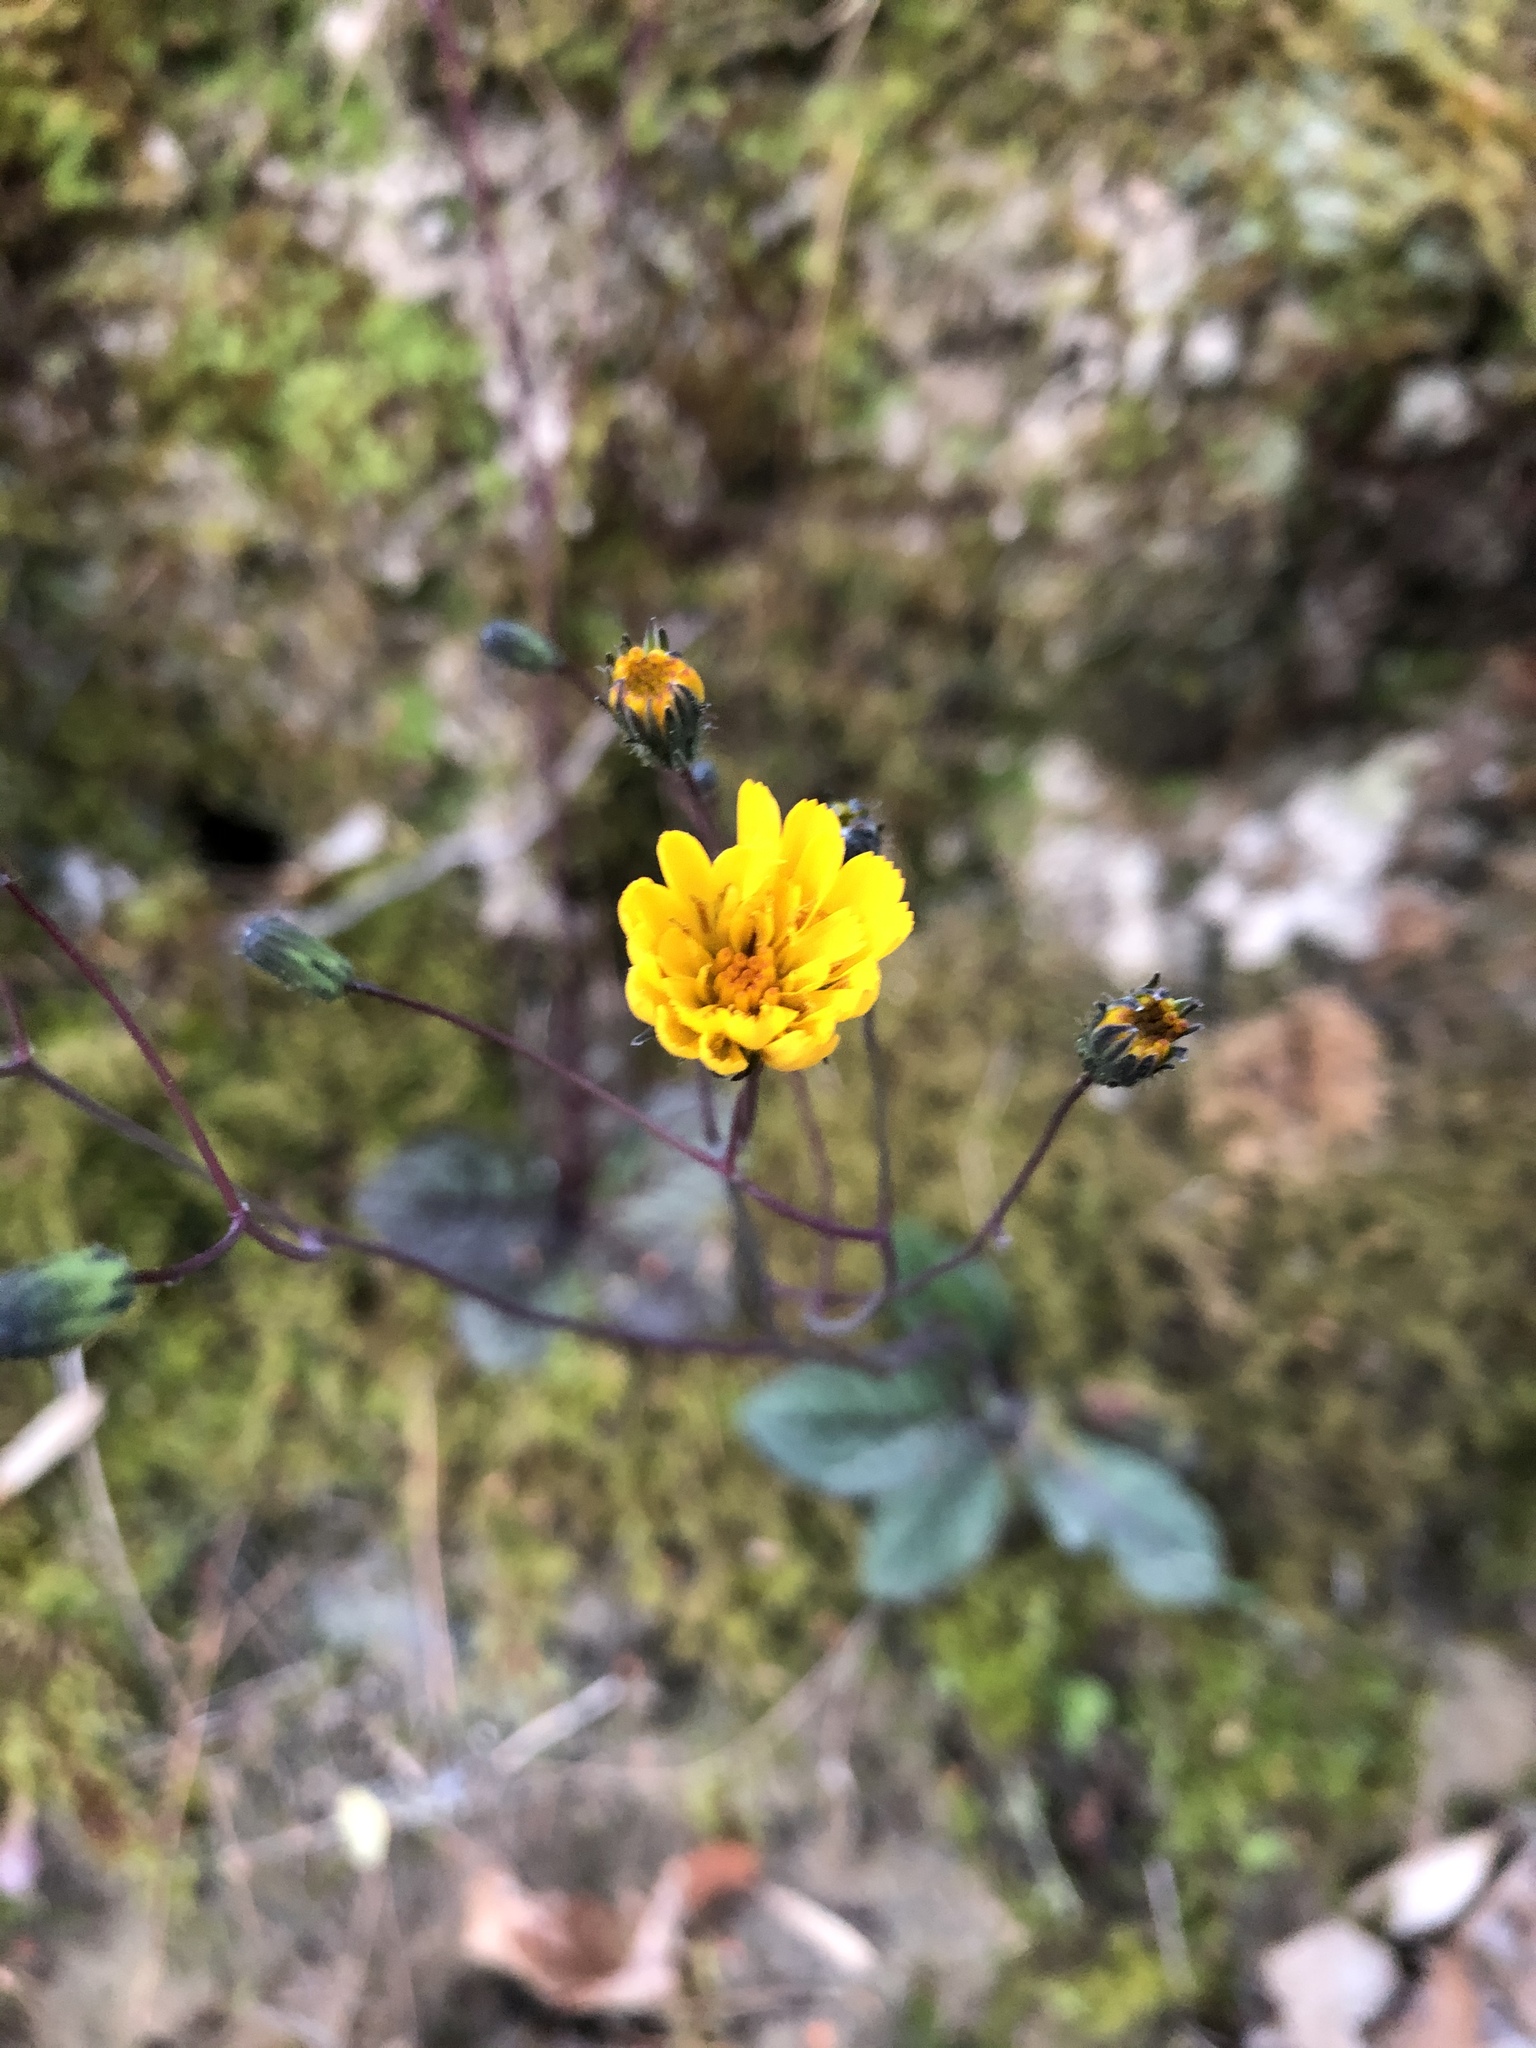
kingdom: Plantae
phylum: Tracheophyta
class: Magnoliopsida
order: Asterales
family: Asteraceae
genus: Hieracium
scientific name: Hieracium venosum
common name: Rattlesnake hawkweed
